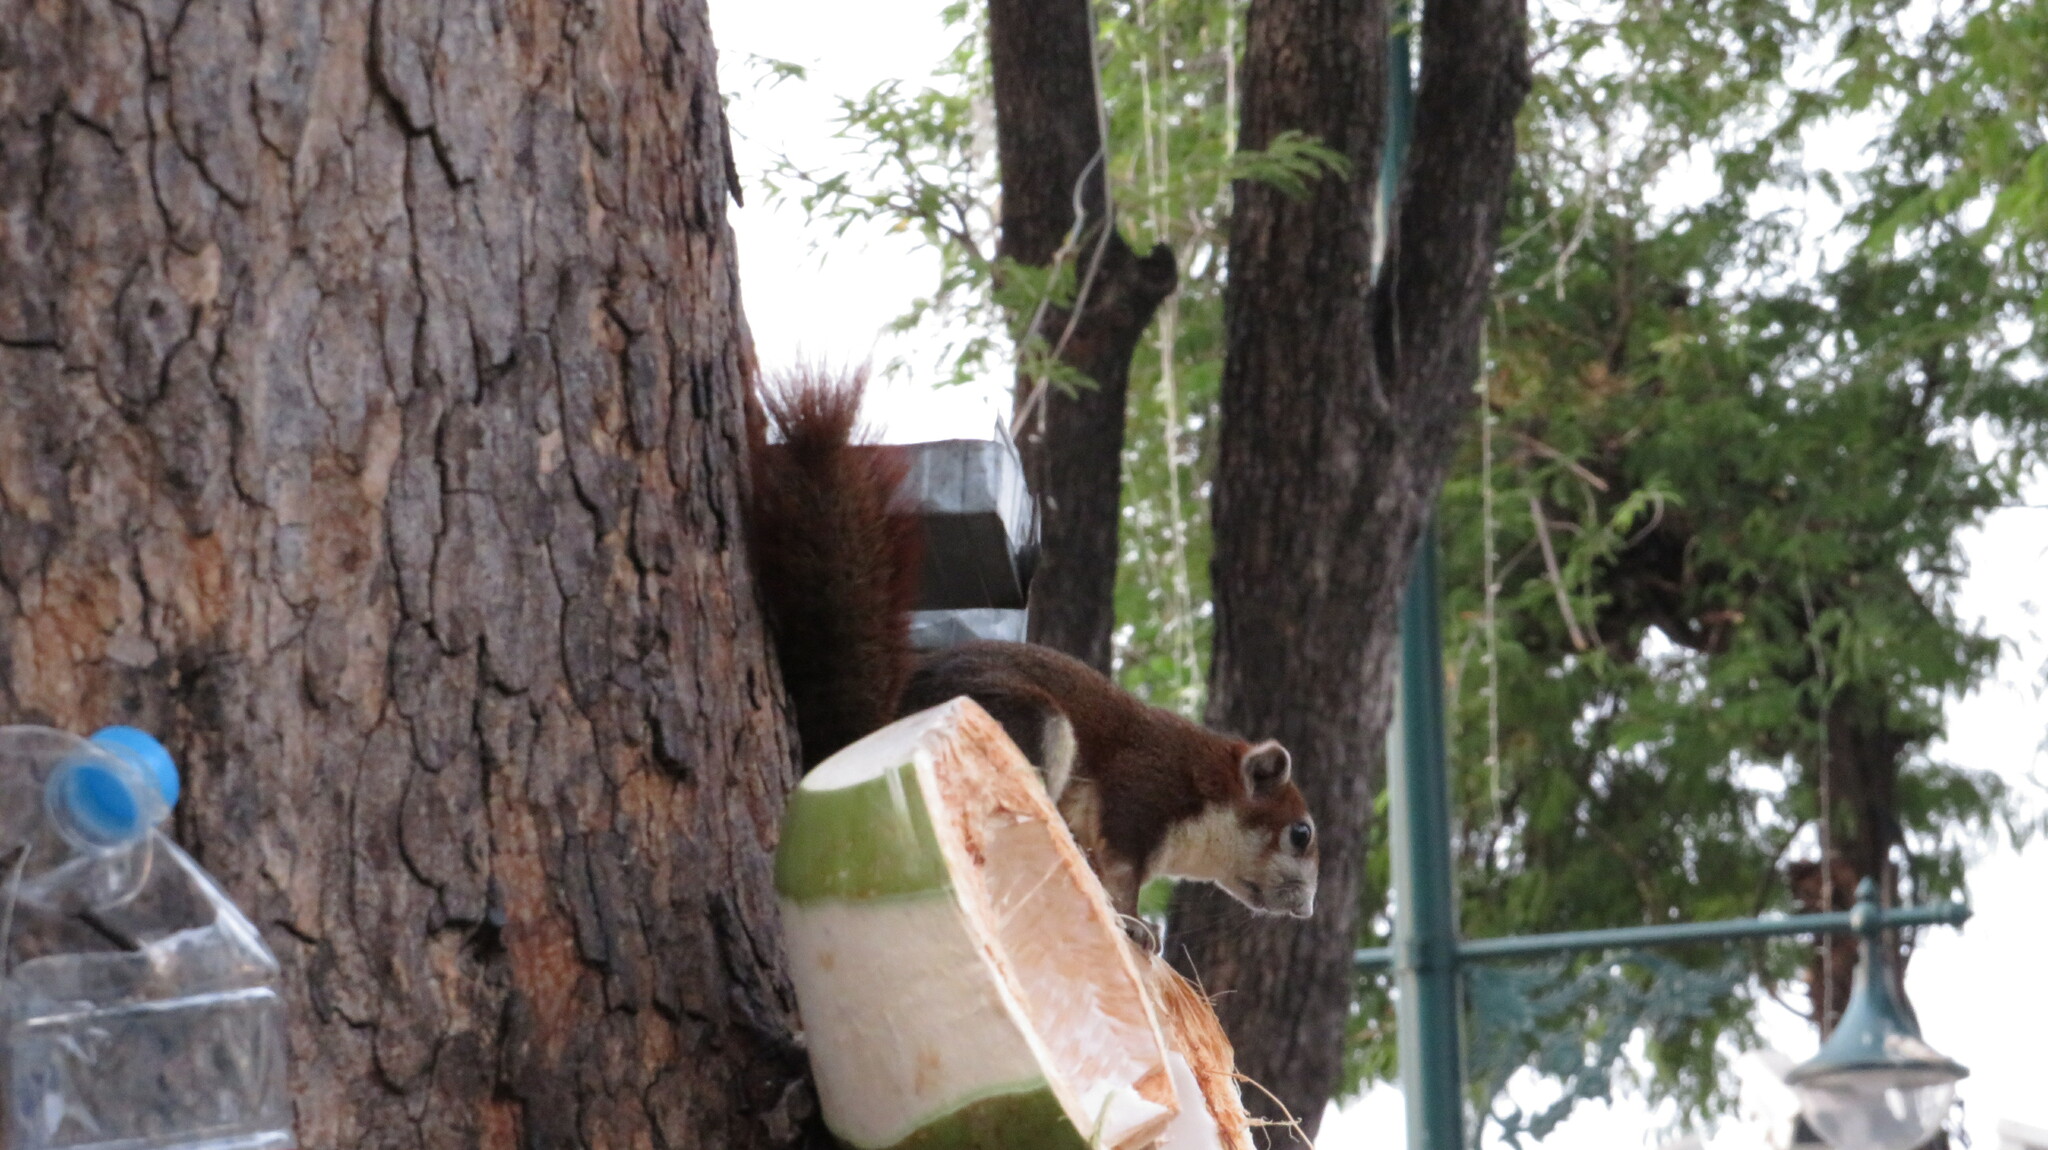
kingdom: Animalia
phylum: Chordata
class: Mammalia
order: Rodentia
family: Sciuridae
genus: Callosciurus
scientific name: Callosciurus finlaysonii
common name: Finlayson's squirrel
